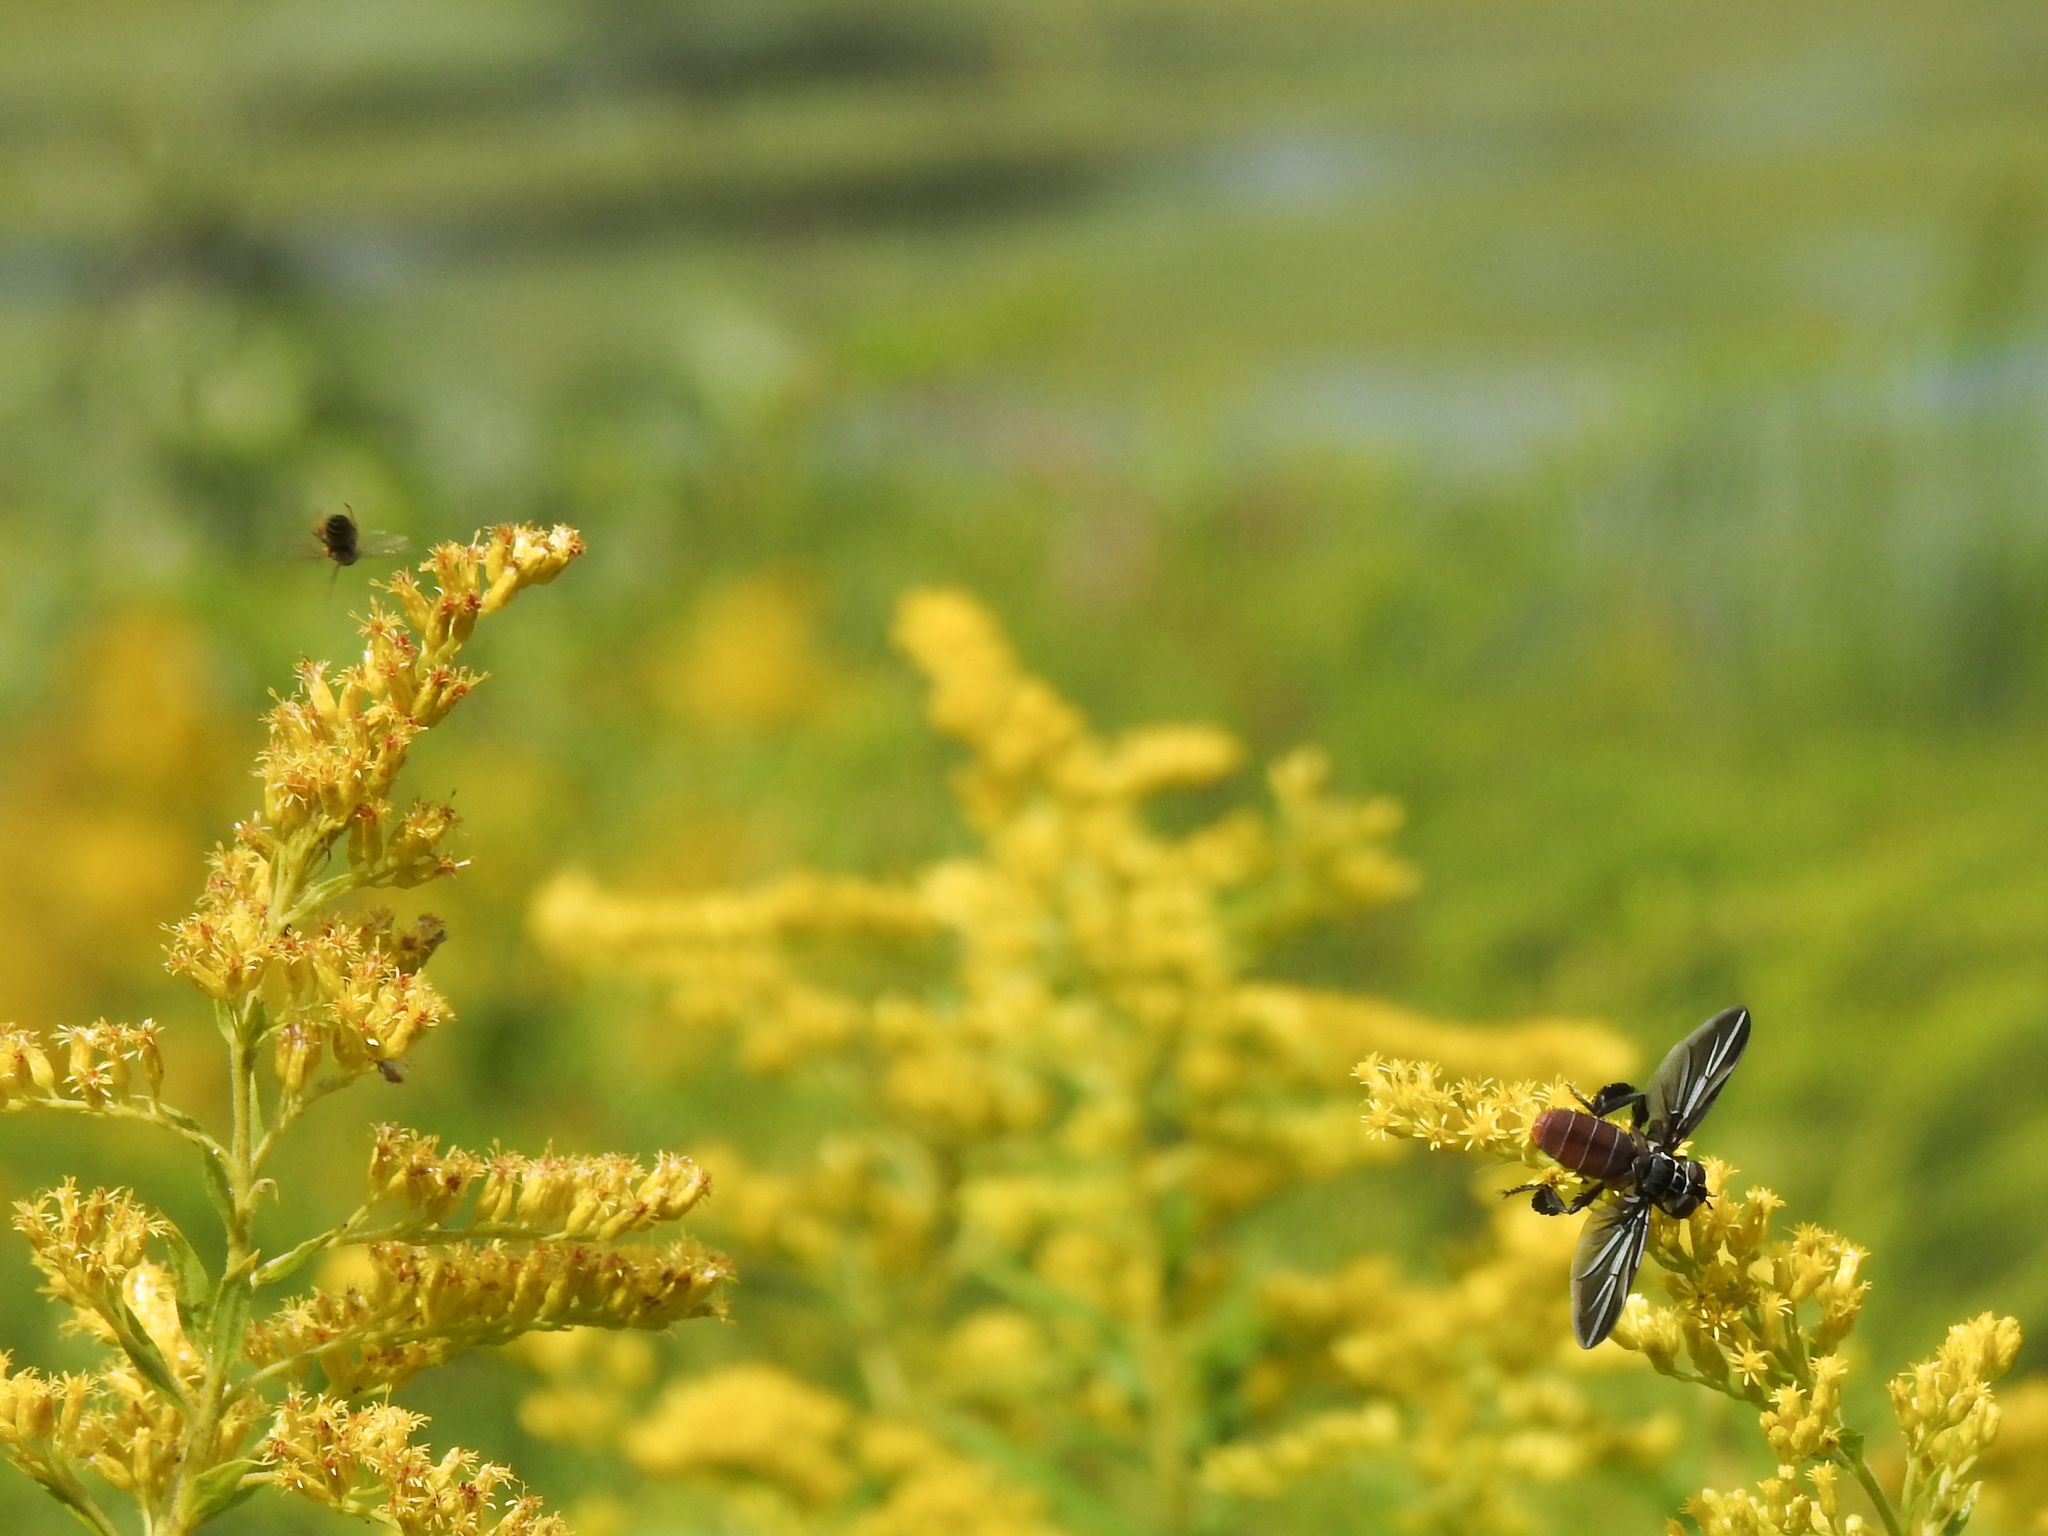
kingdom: Animalia
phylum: Arthropoda
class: Insecta
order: Diptera
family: Tachinidae
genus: Trichopoda
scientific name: Trichopoda lanipes
